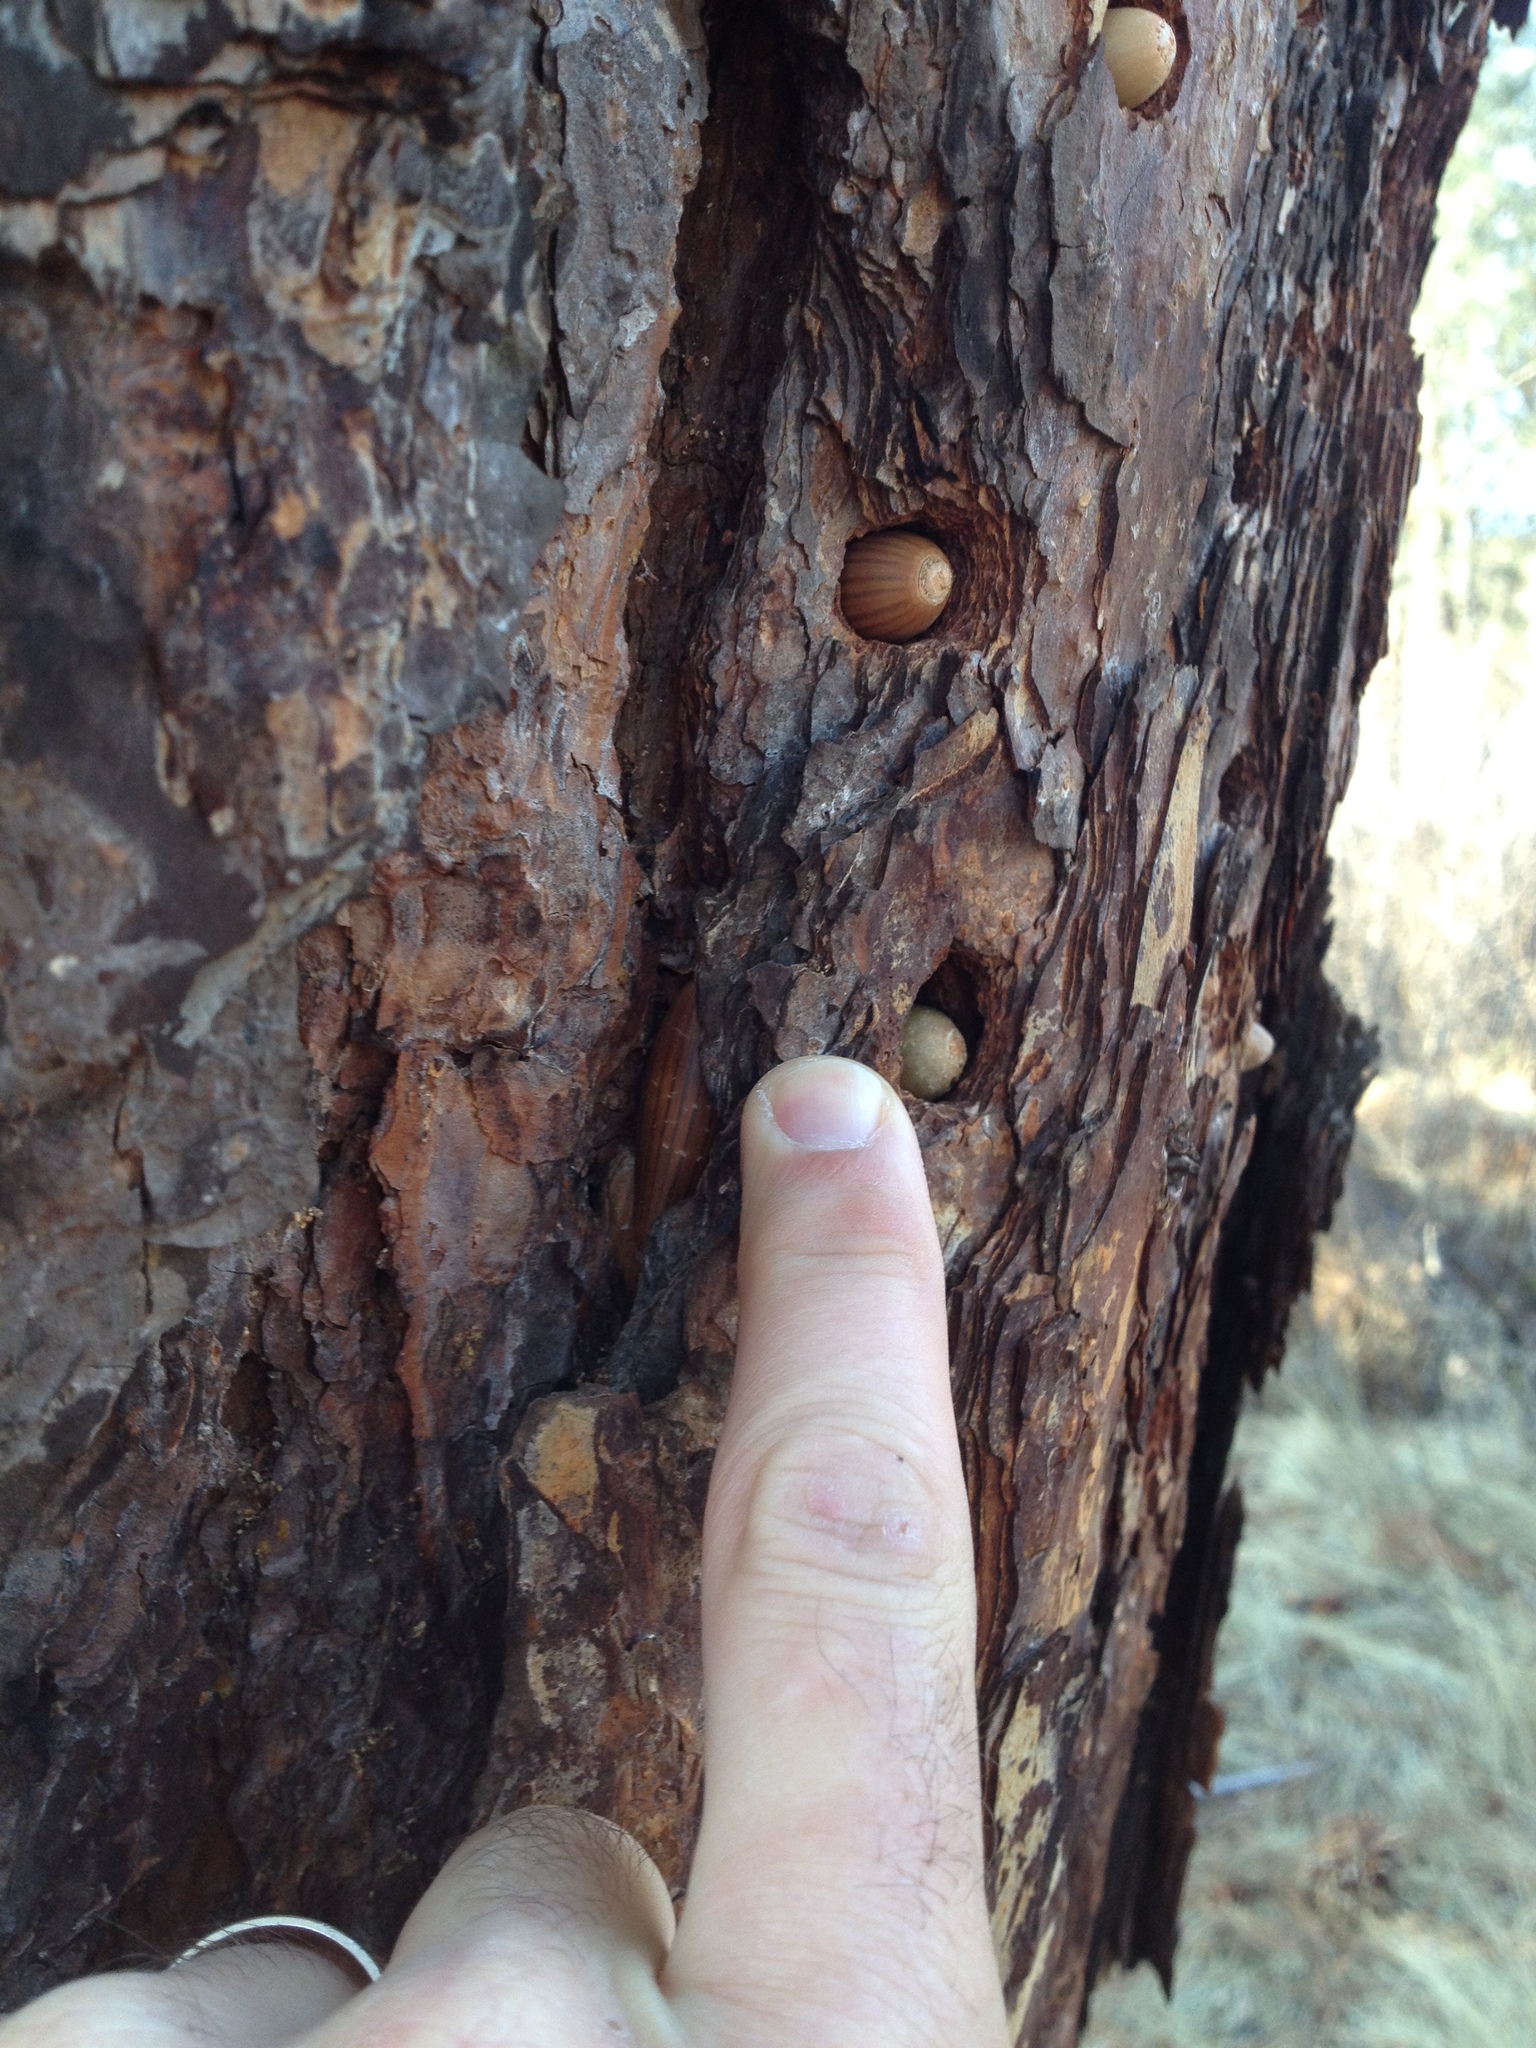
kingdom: Animalia
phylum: Chordata
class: Aves
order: Piciformes
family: Picidae
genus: Melanerpes
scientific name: Melanerpes formicivorus
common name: Acorn woodpecker
